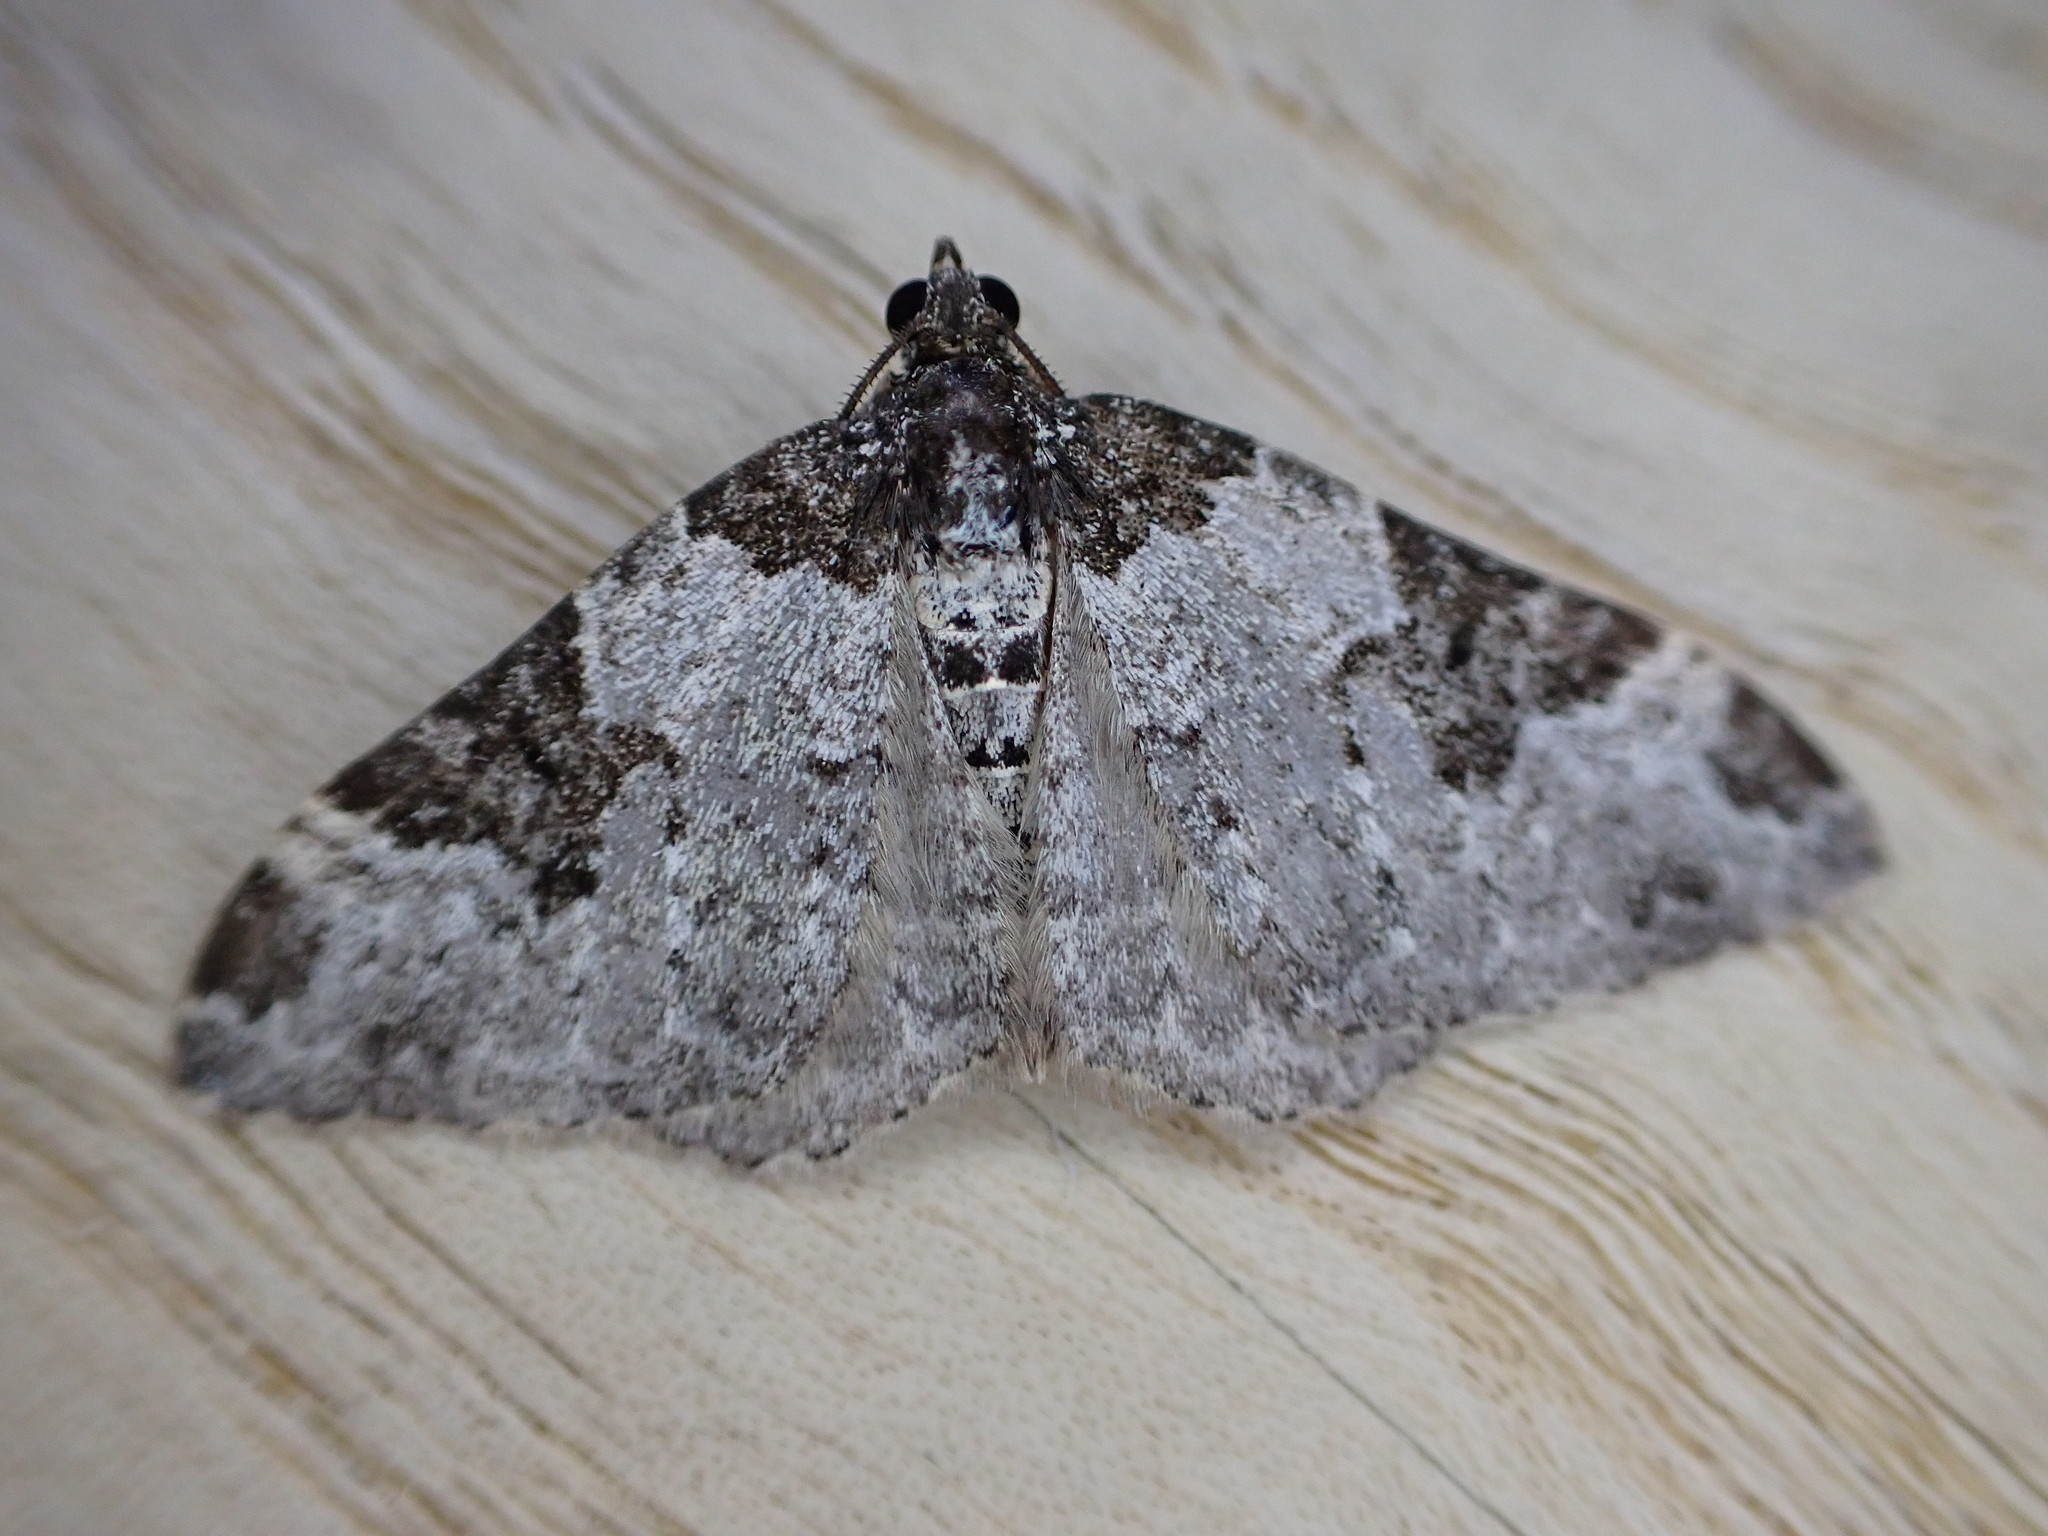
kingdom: Animalia
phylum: Arthropoda
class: Insecta
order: Lepidoptera
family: Geometridae
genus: Xanthorhoe
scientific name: Xanthorhoe fluctuata
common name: Garden carpet
